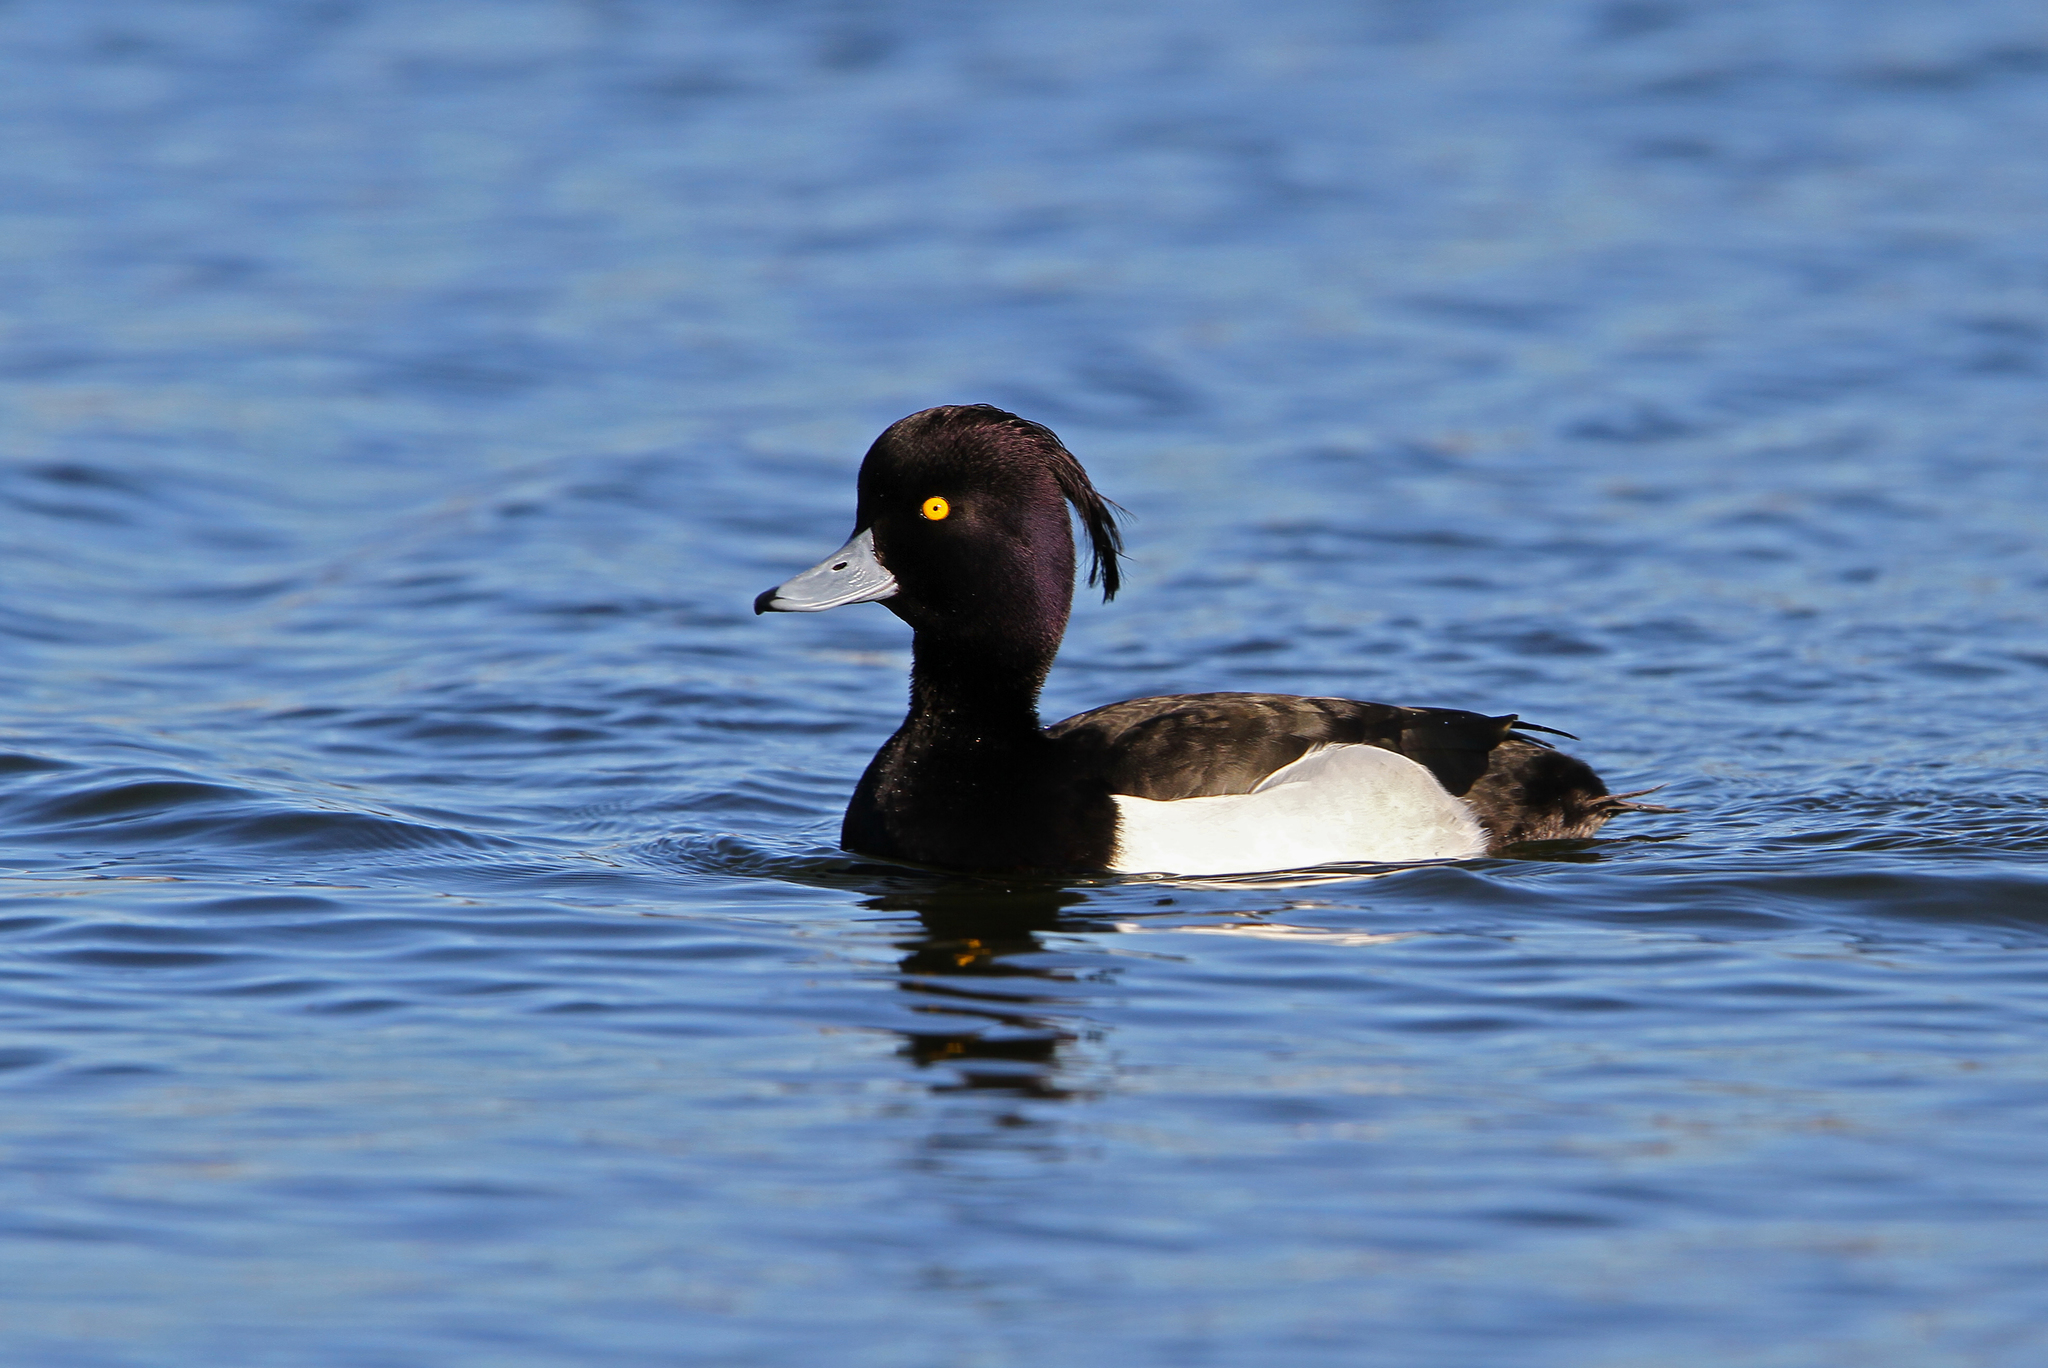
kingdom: Animalia
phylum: Chordata
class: Aves
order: Anseriformes
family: Anatidae
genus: Aythya
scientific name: Aythya fuligula
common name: Tufted duck
